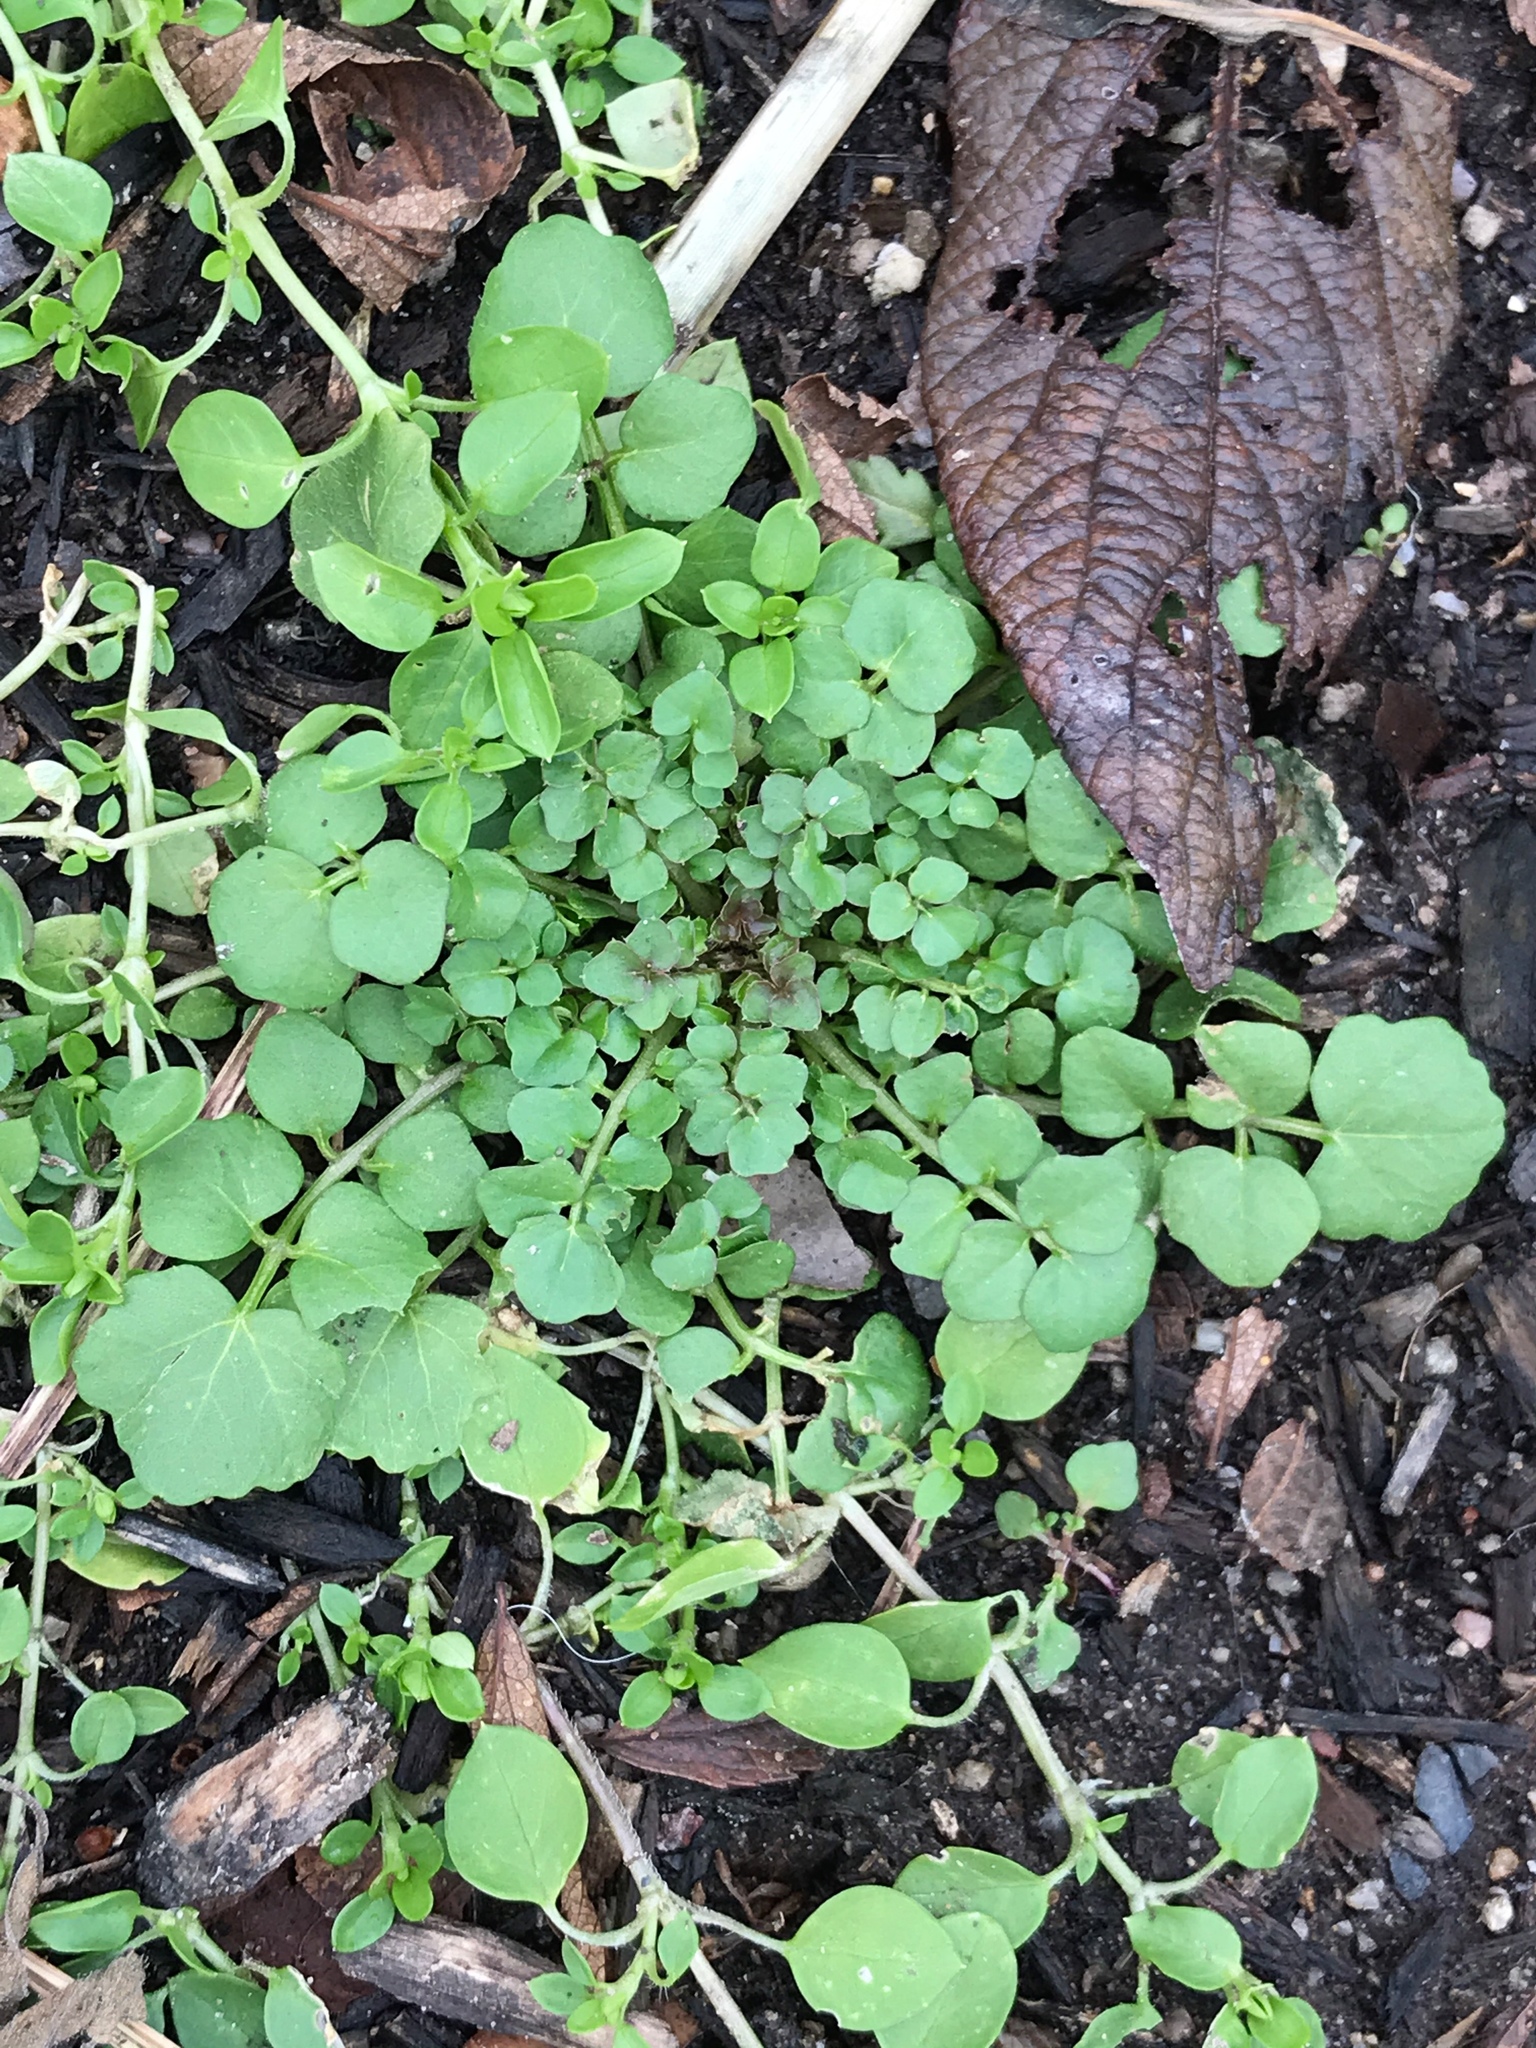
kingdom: Plantae
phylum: Tracheophyta
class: Magnoliopsida
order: Brassicales
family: Brassicaceae
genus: Cardamine
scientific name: Cardamine hirsuta
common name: Hairy bittercress
